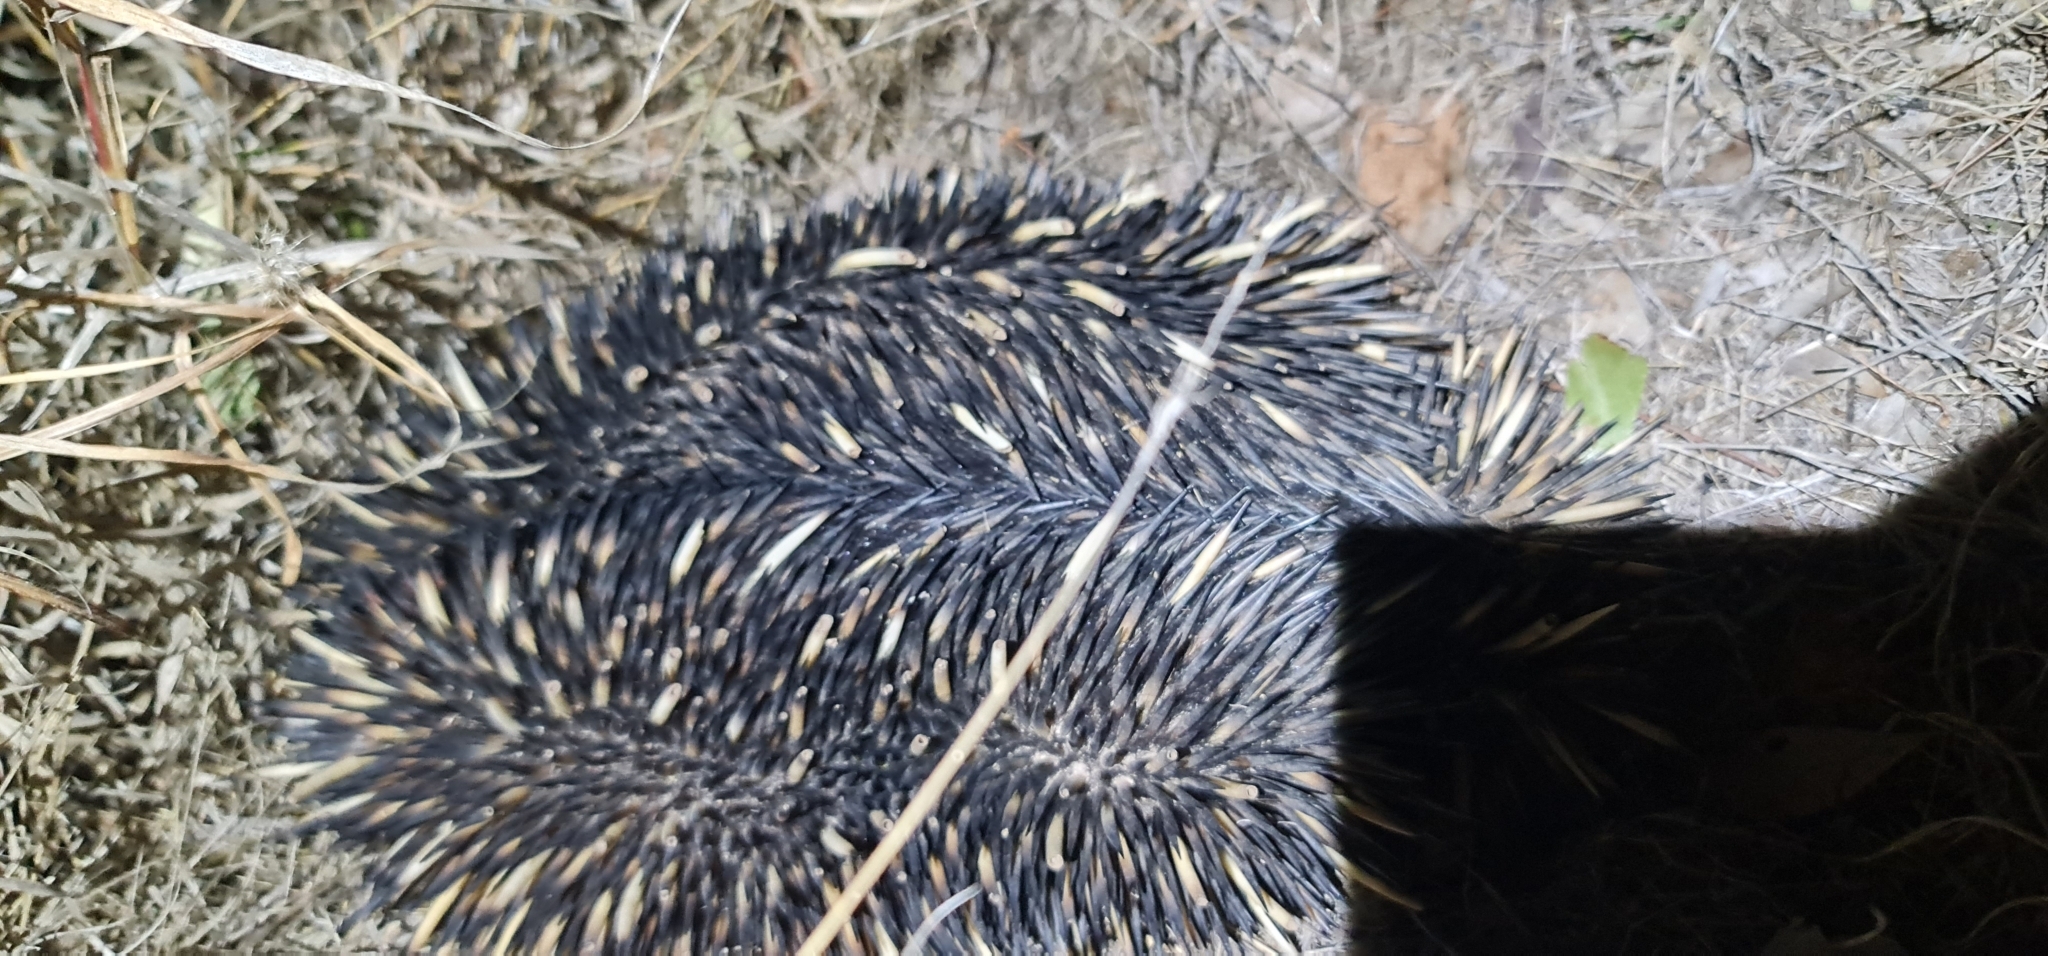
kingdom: Animalia
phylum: Chordata
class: Mammalia
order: Monotremata
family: Tachyglossidae
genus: Tachyglossus
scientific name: Tachyglossus aculeatus
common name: Short-beaked echidna
